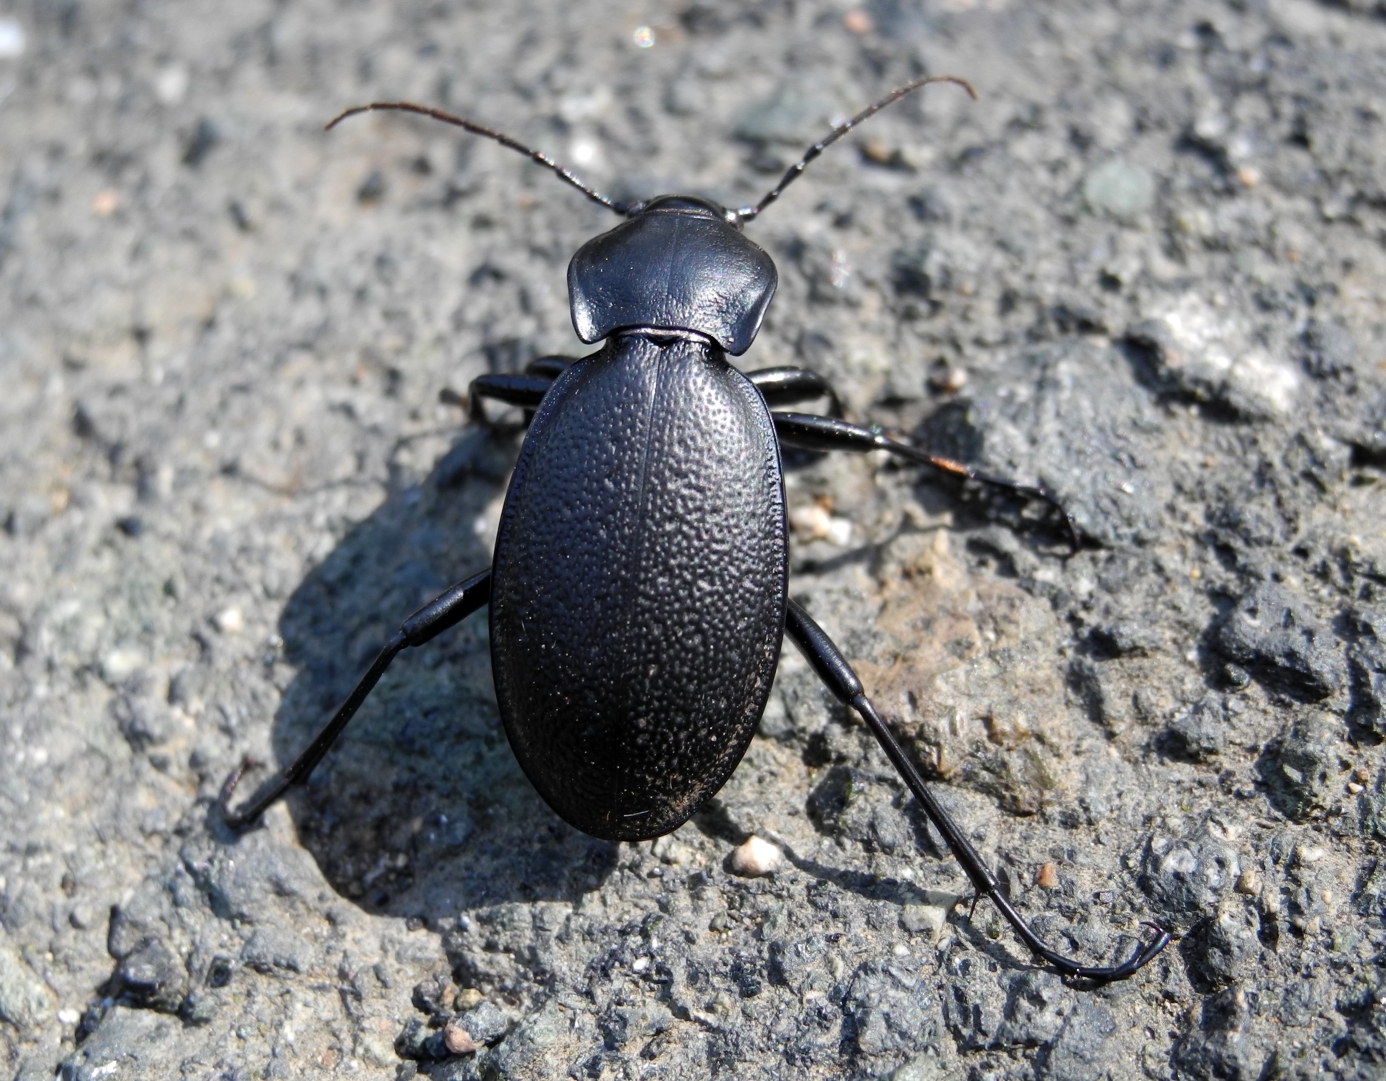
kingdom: Animalia
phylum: Arthropoda
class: Insecta
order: Coleoptera
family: Carabidae
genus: Carabus
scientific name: Carabus coriaceus
